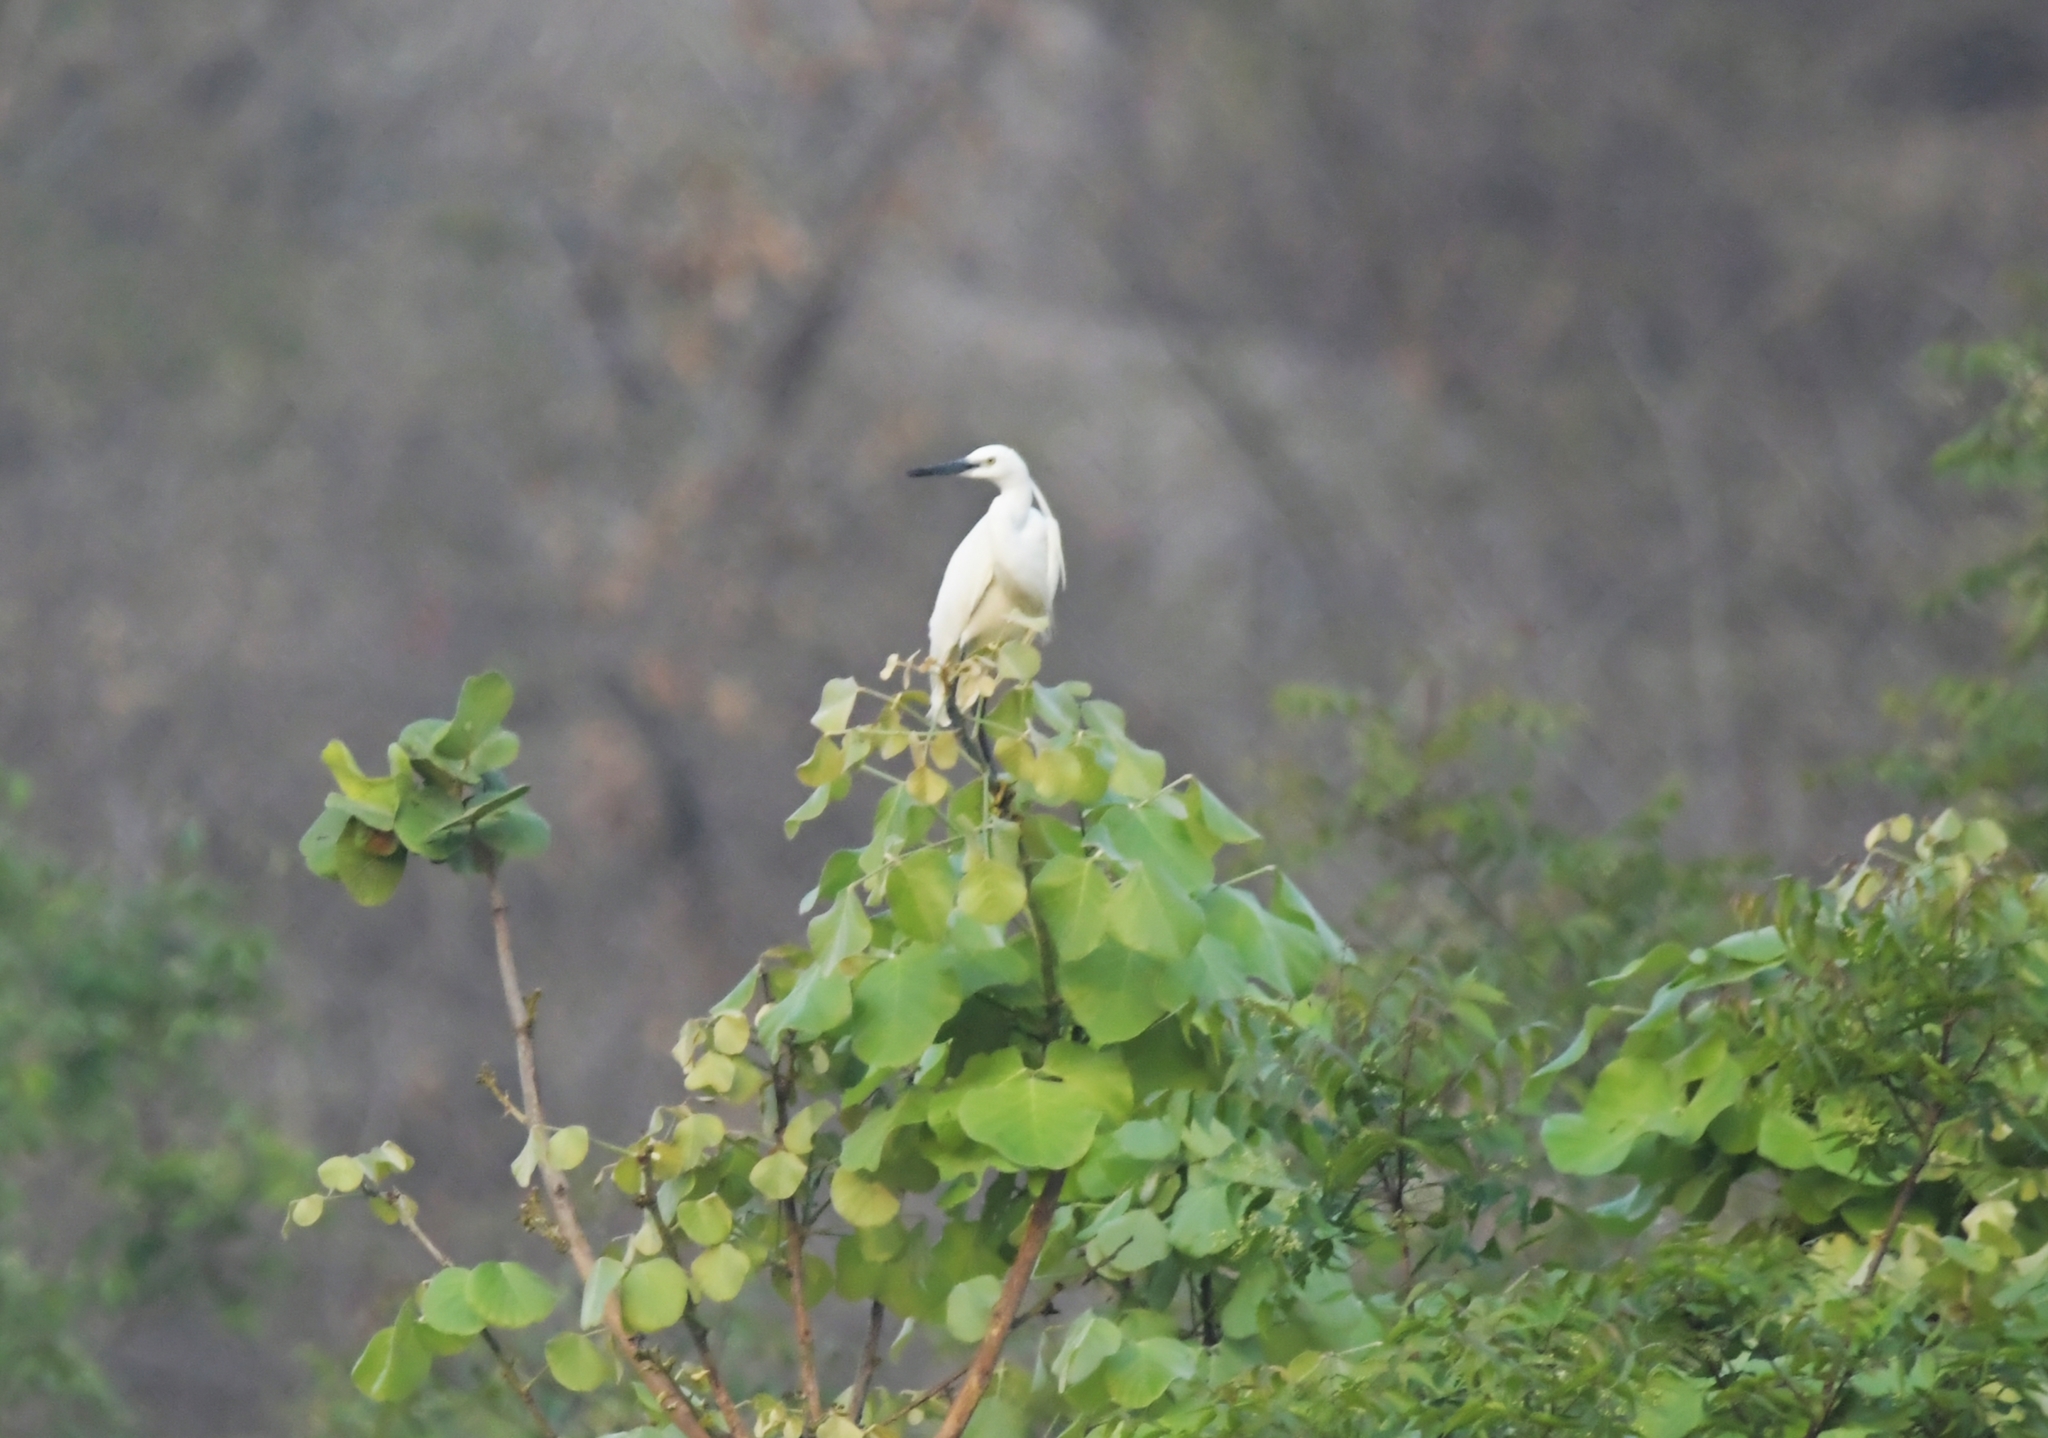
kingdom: Animalia
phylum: Chordata
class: Aves
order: Pelecaniformes
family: Ardeidae
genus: Egretta
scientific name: Egretta garzetta
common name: Little egret
